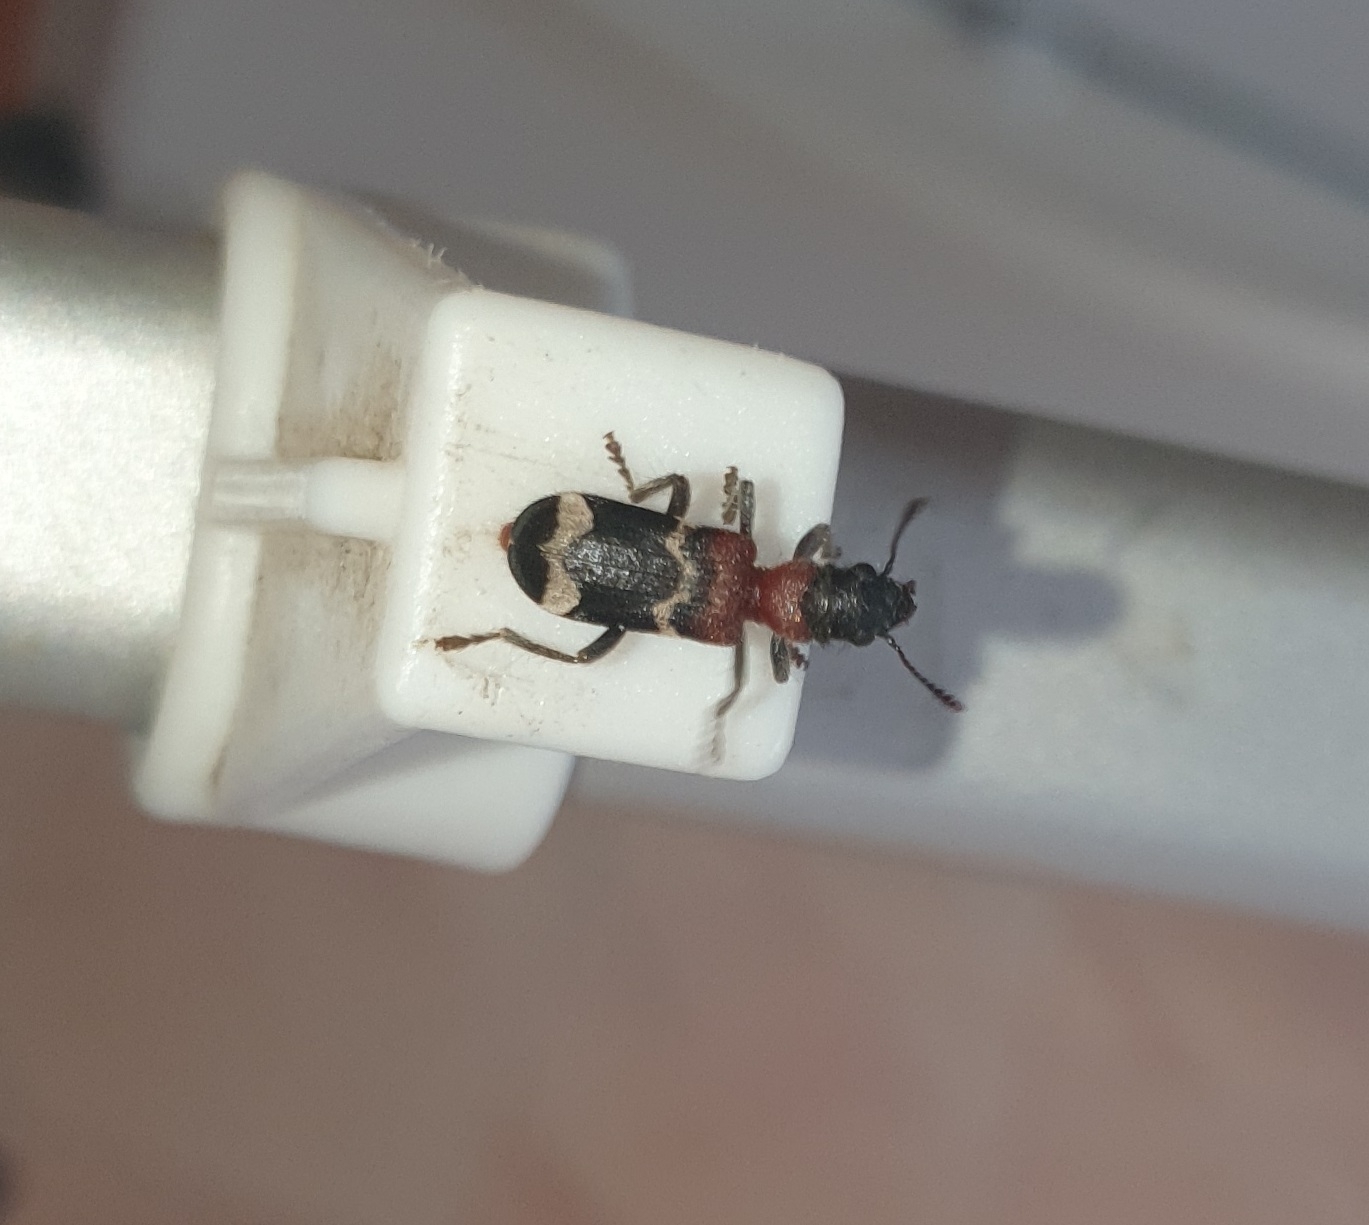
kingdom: Animalia
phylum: Arthropoda
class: Insecta
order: Coleoptera
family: Cleridae
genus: Thanasimus
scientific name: Thanasimus formicarius
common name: Ant beetle
